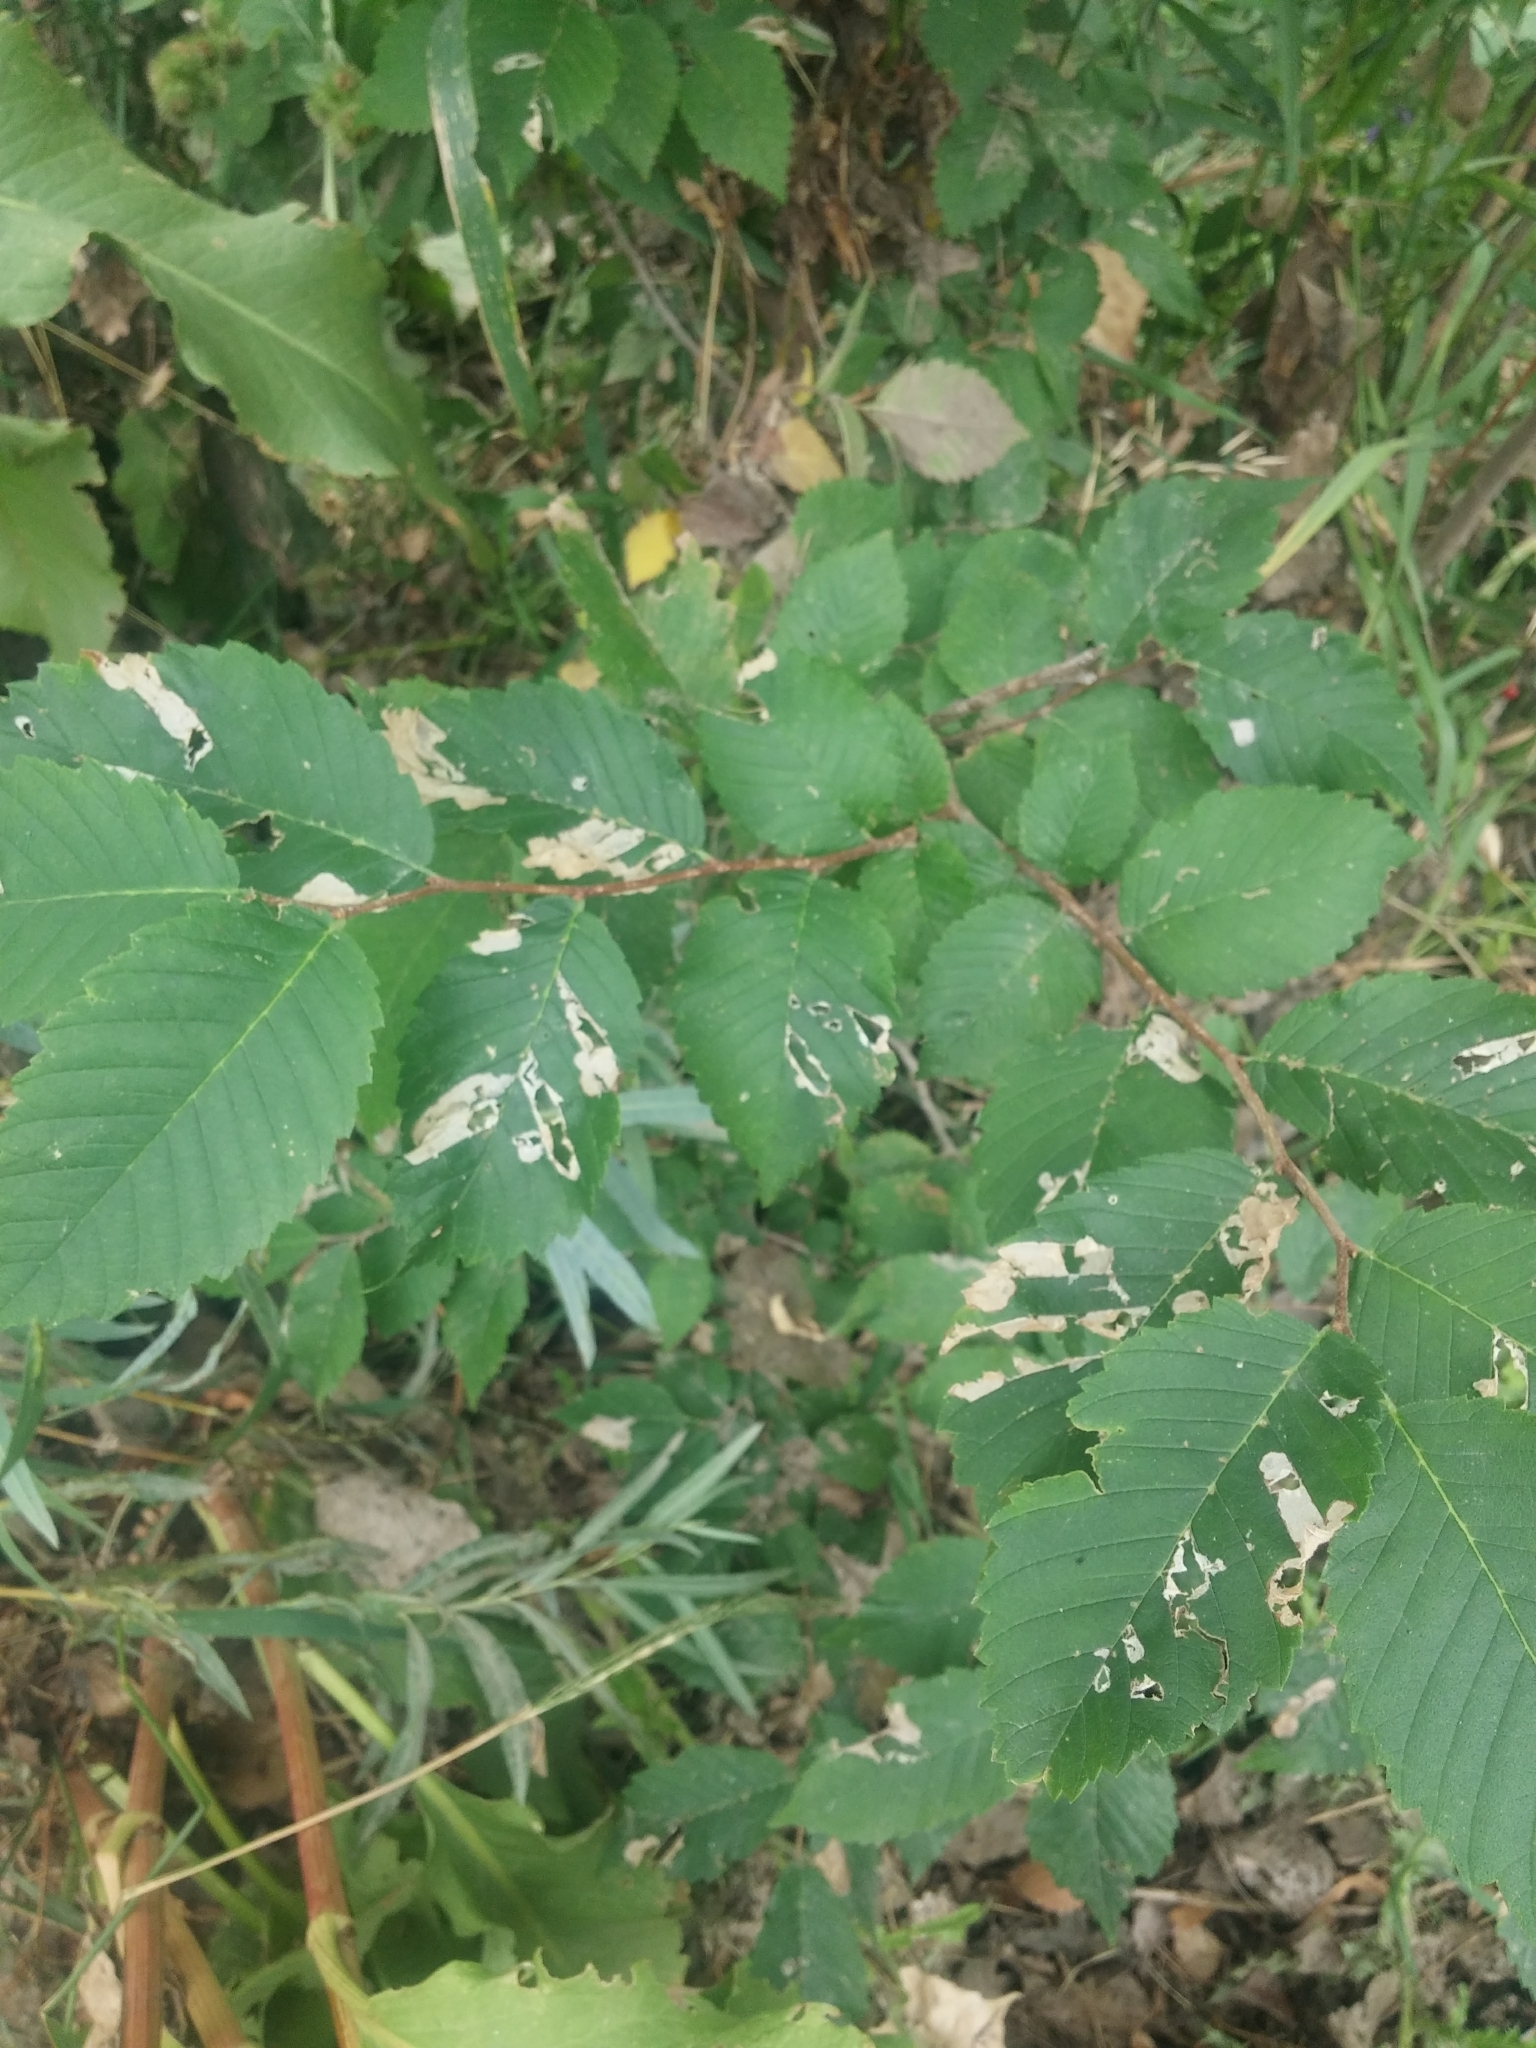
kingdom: Plantae
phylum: Tracheophyta
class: Magnoliopsida
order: Rosales
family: Ulmaceae
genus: Ulmus
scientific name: Ulmus americana
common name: American elm
